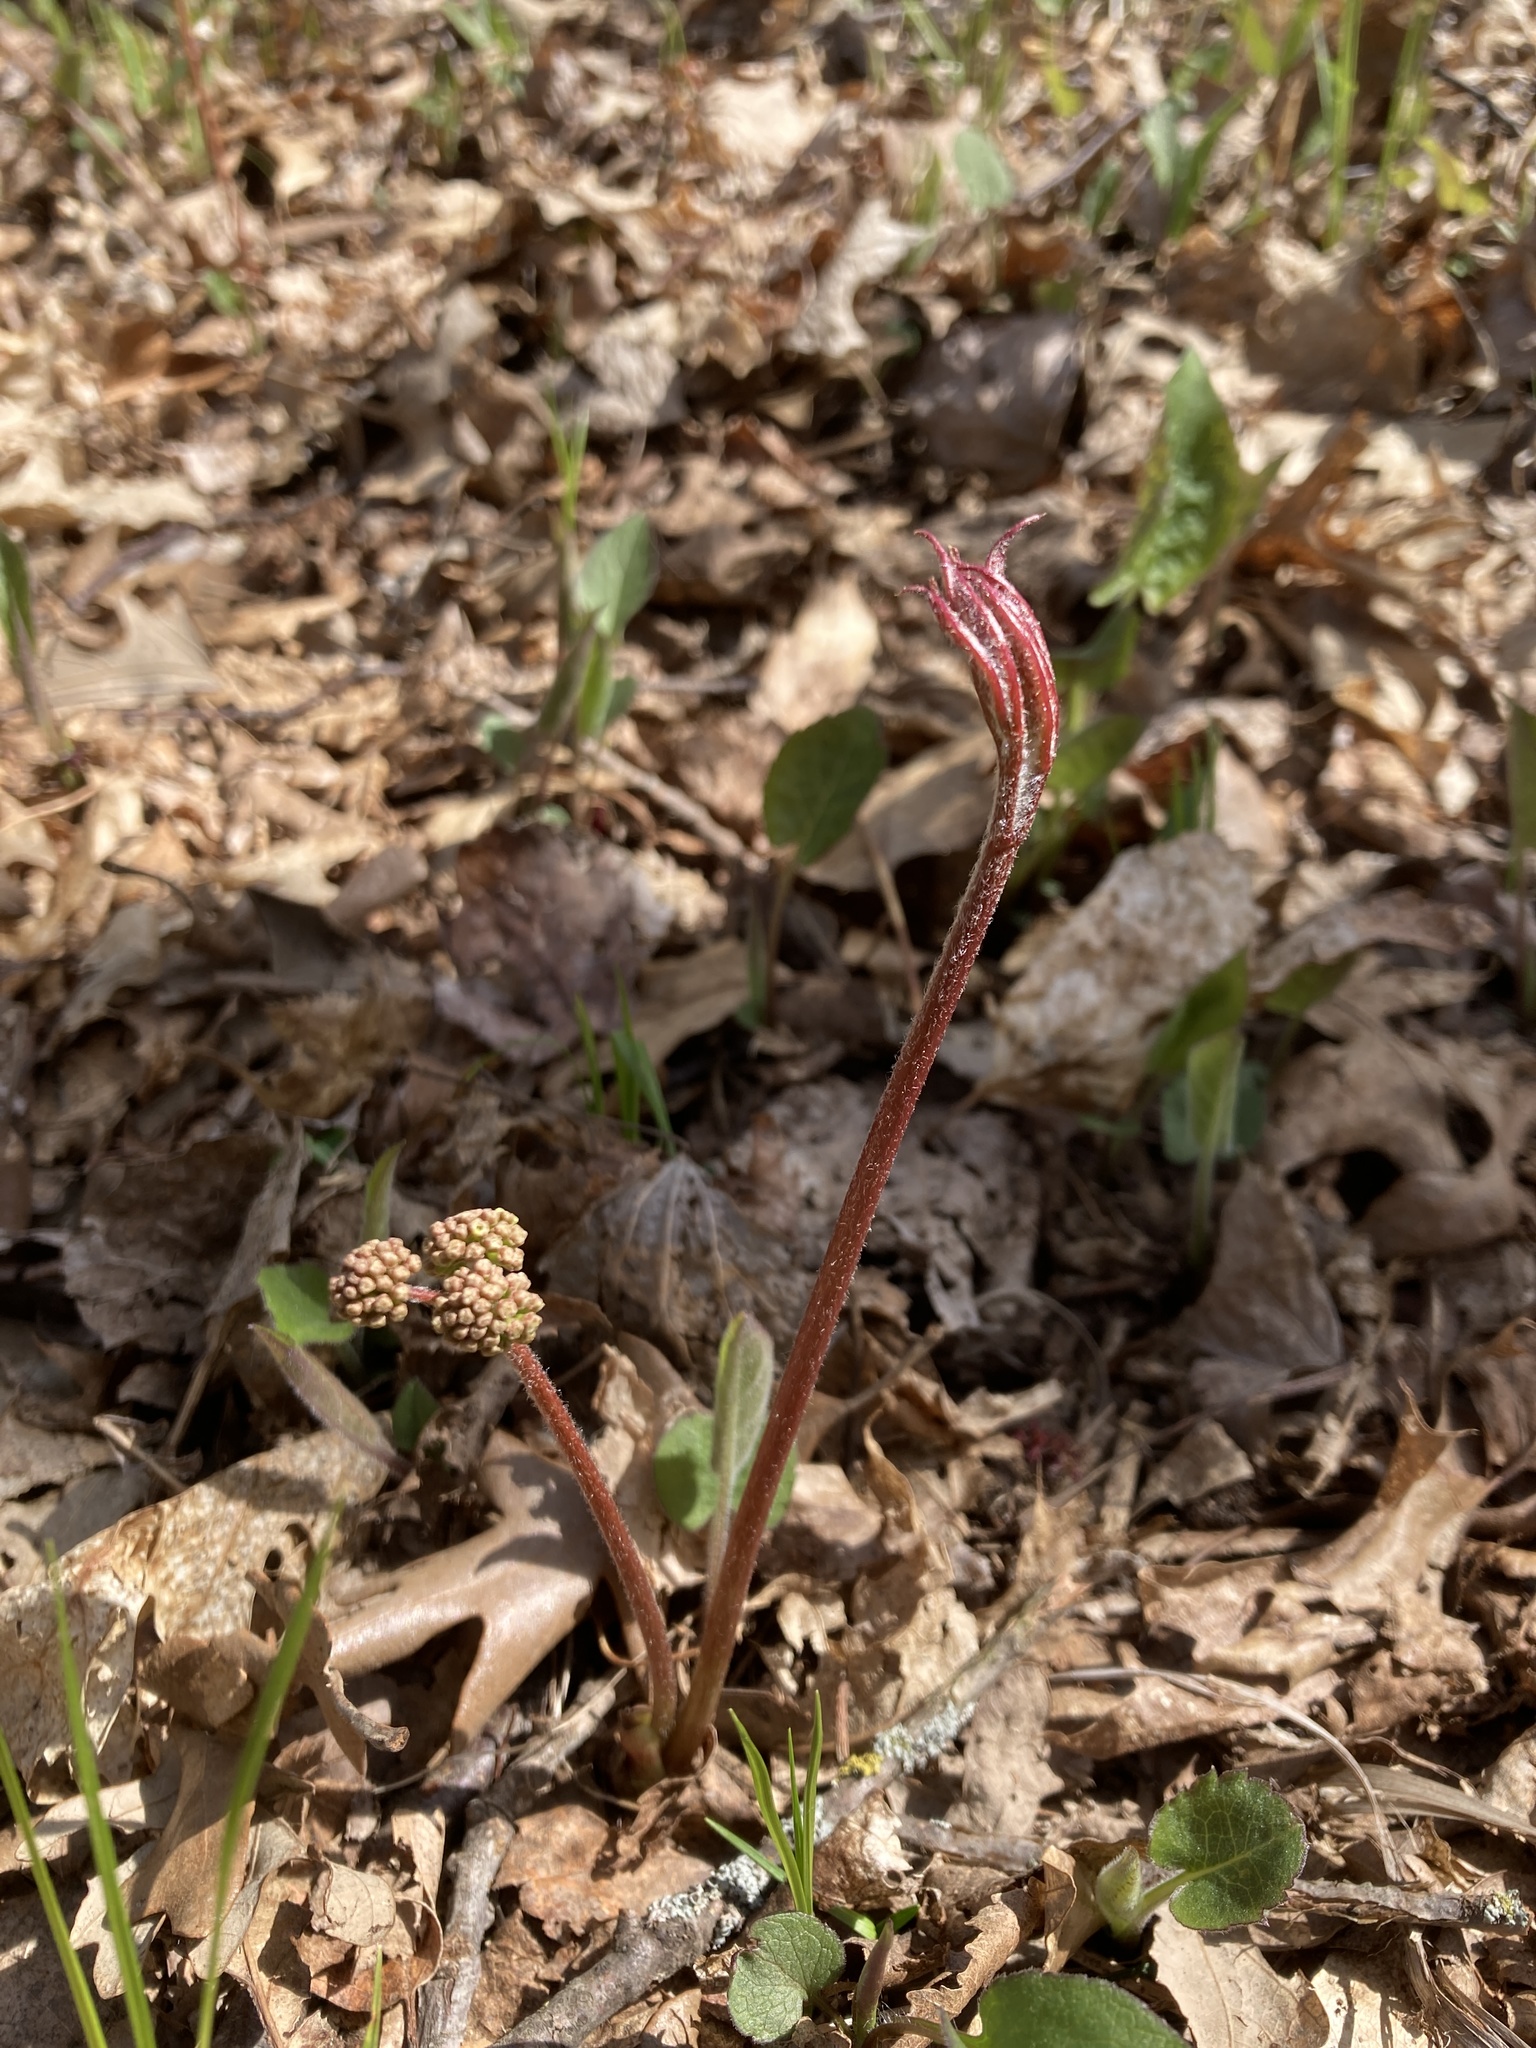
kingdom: Plantae
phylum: Tracheophyta
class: Magnoliopsida
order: Apiales
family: Araliaceae
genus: Aralia
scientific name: Aralia nudicaulis
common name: Wild sarsaparilla
